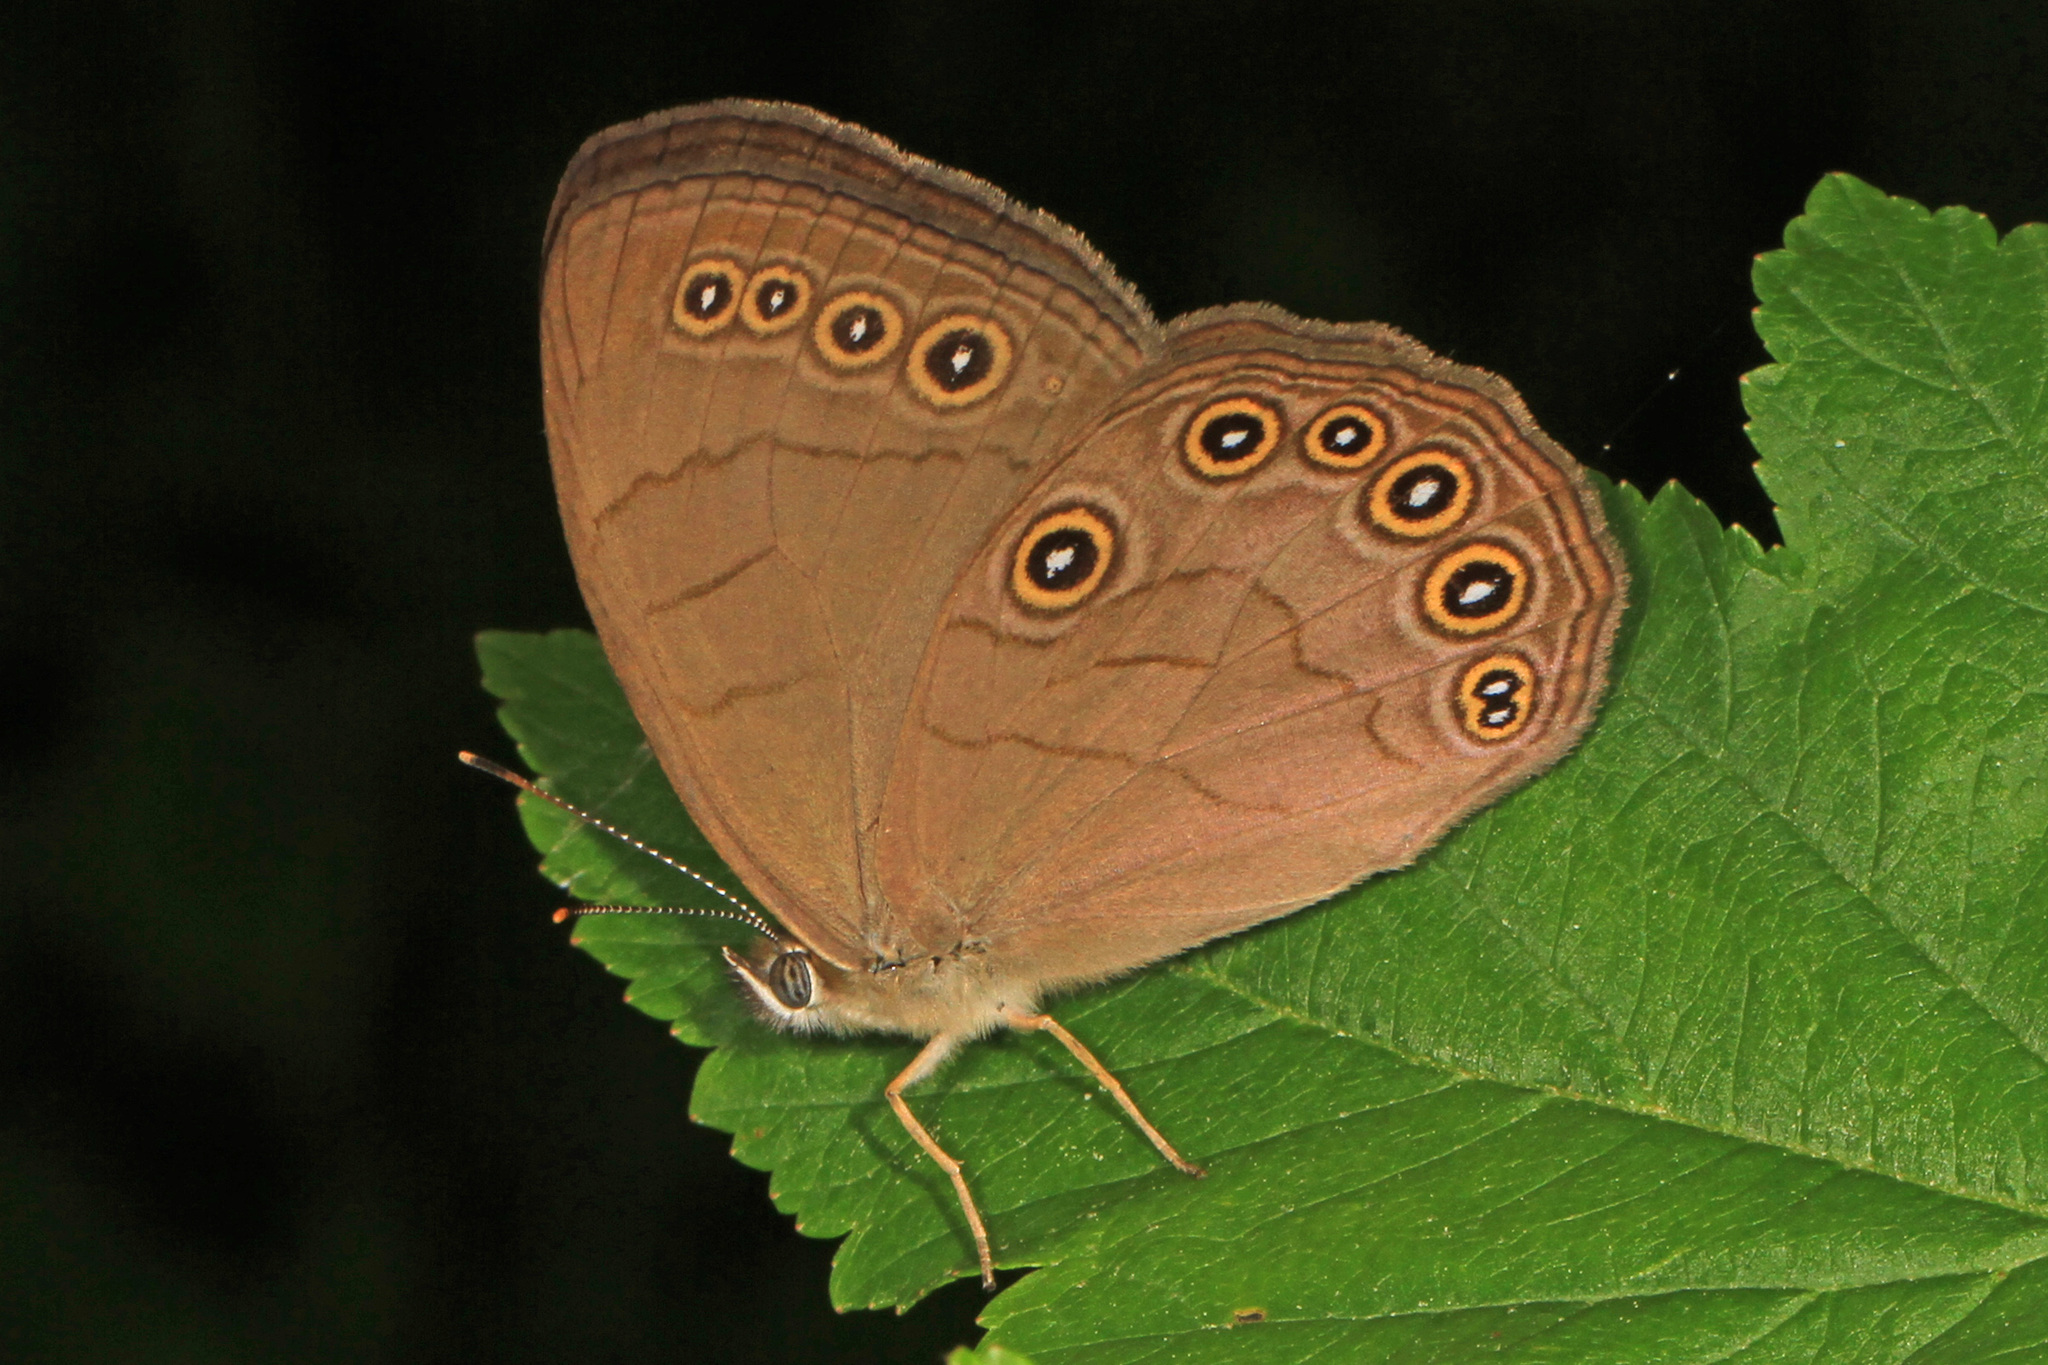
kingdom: Animalia
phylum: Arthropoda
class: Insecta
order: Lepidoptera
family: Nymphalidae
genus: Lethe
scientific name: Lethe eurydice
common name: Eyed brown
